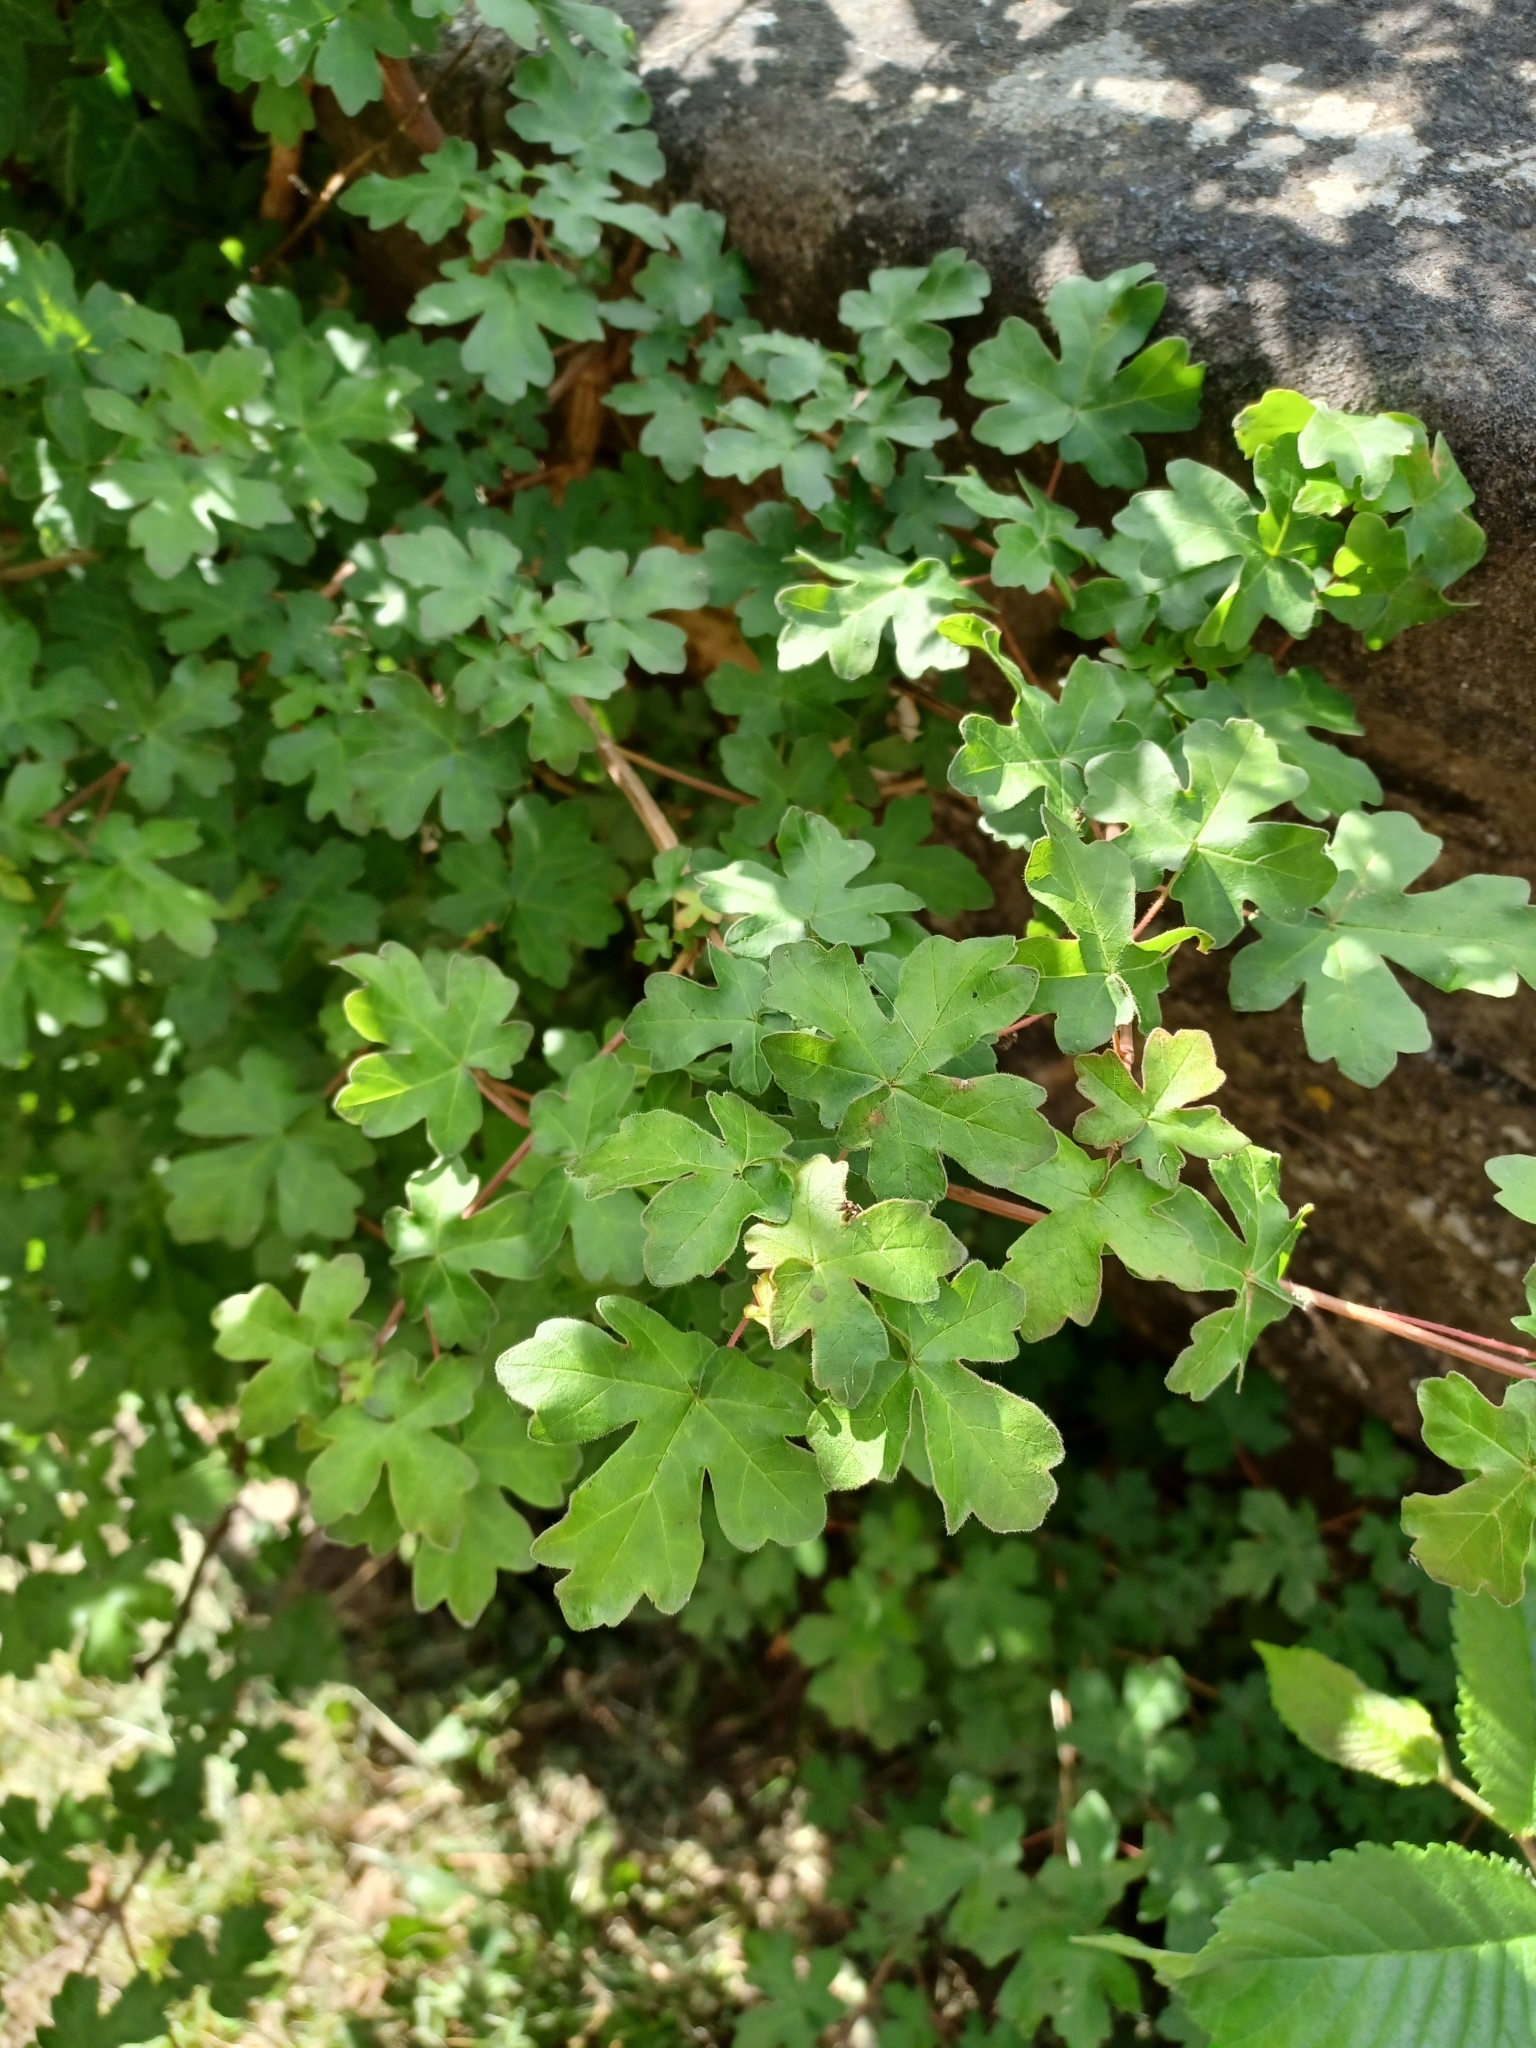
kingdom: Plantae
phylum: Tracheophyta
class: Magnoliopsida
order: Sapindales
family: Sapindaceae
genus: Acer
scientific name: Acer campestre
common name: Field maple
